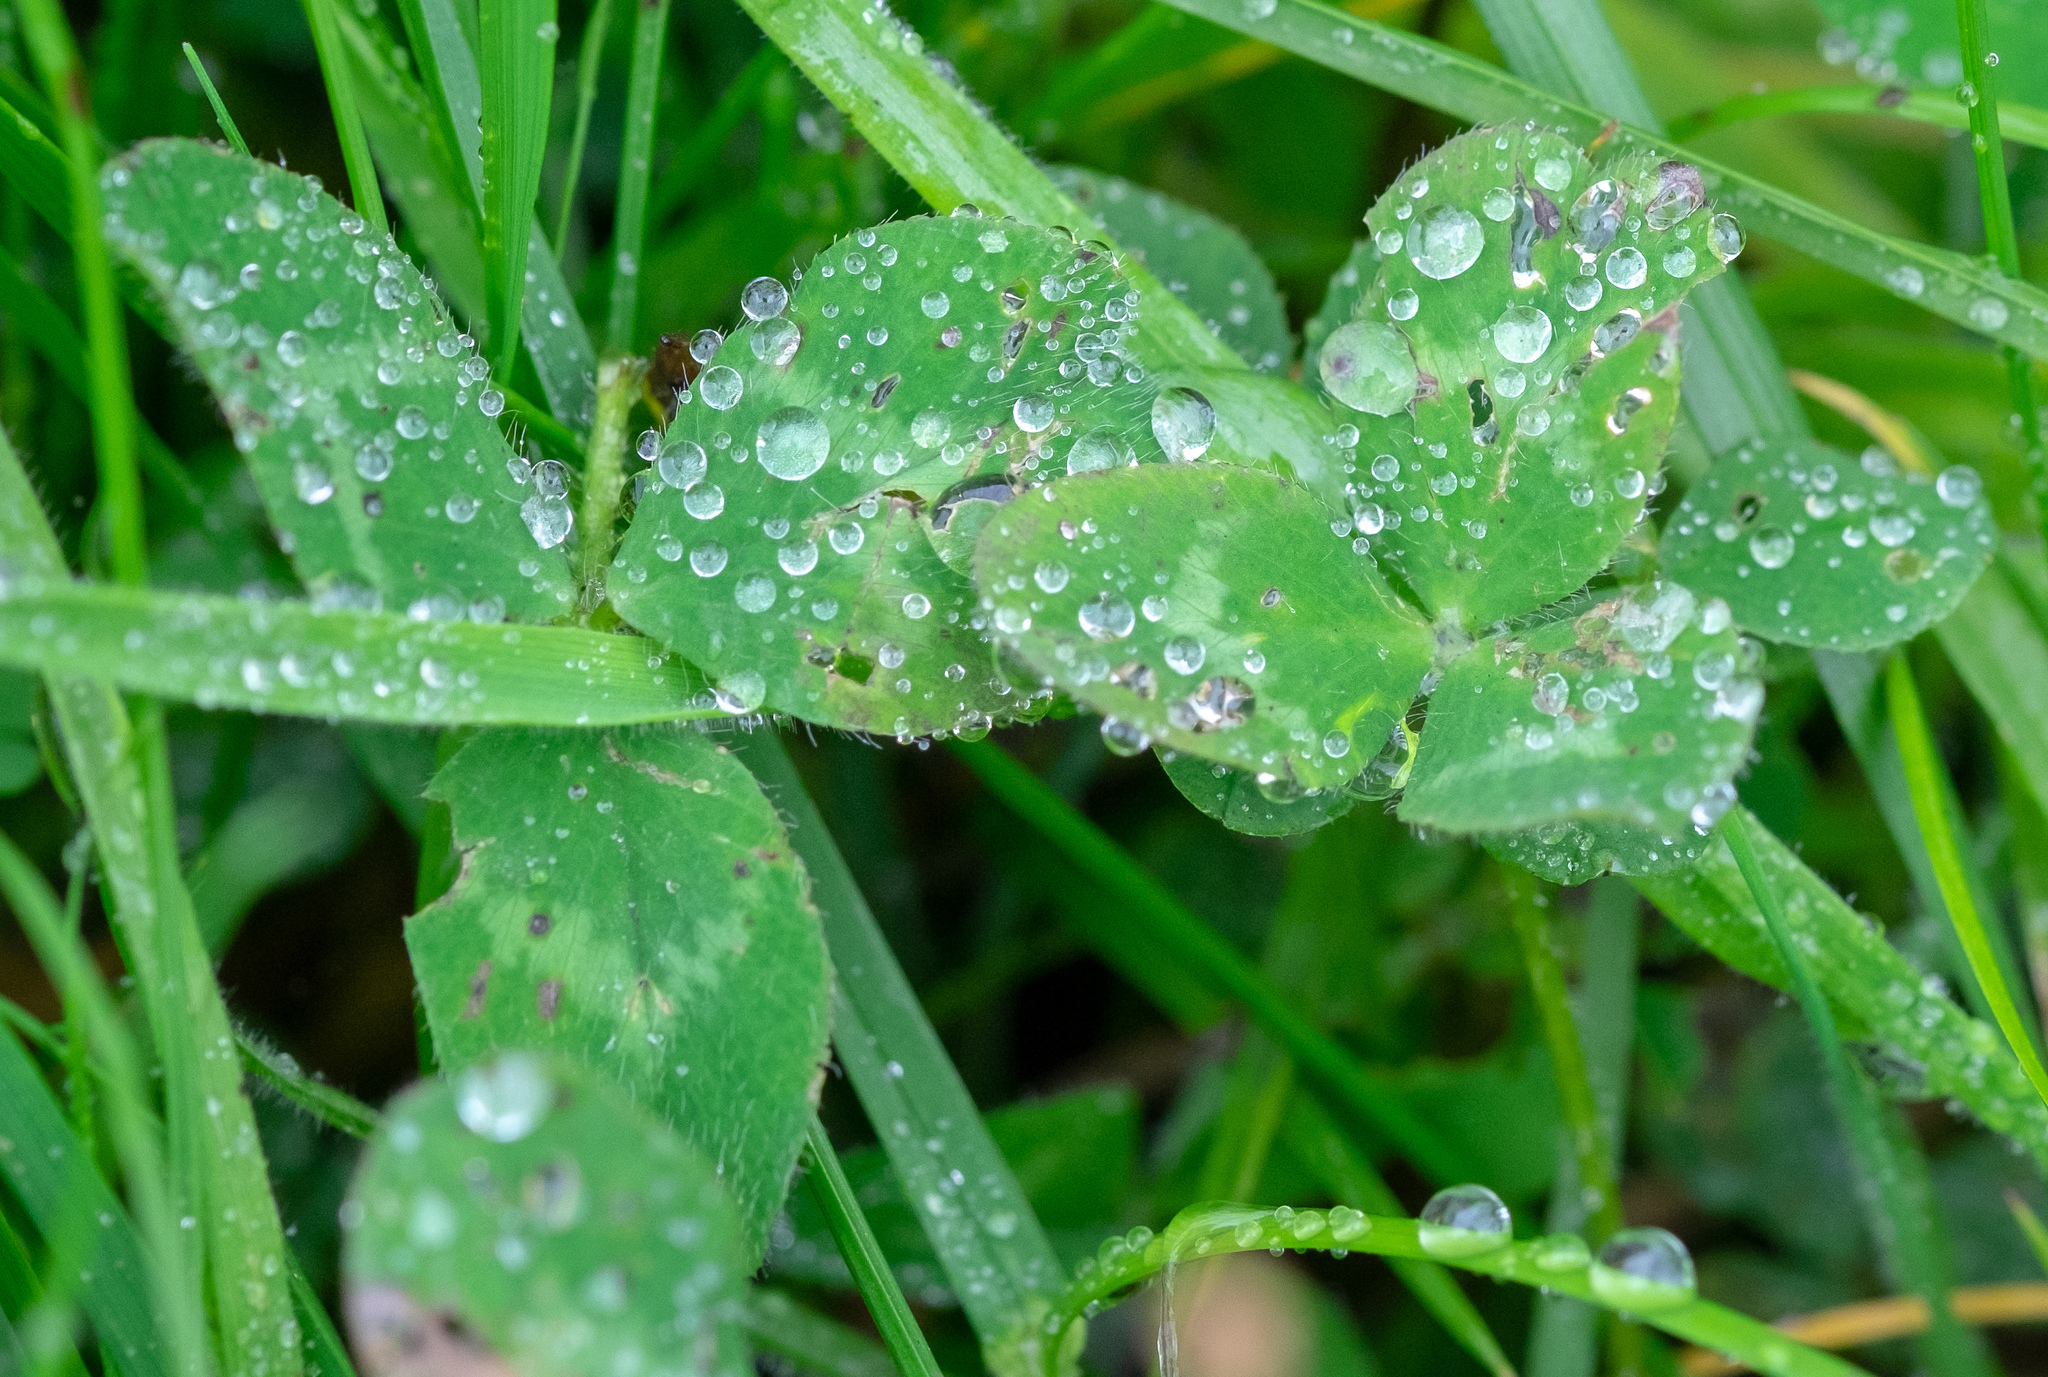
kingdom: Plantae
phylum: Tracheophyta
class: Magnoliopsida
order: Fabales
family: Fabaceae
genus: Trifolium
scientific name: Trifolium pratense
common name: Red clover
